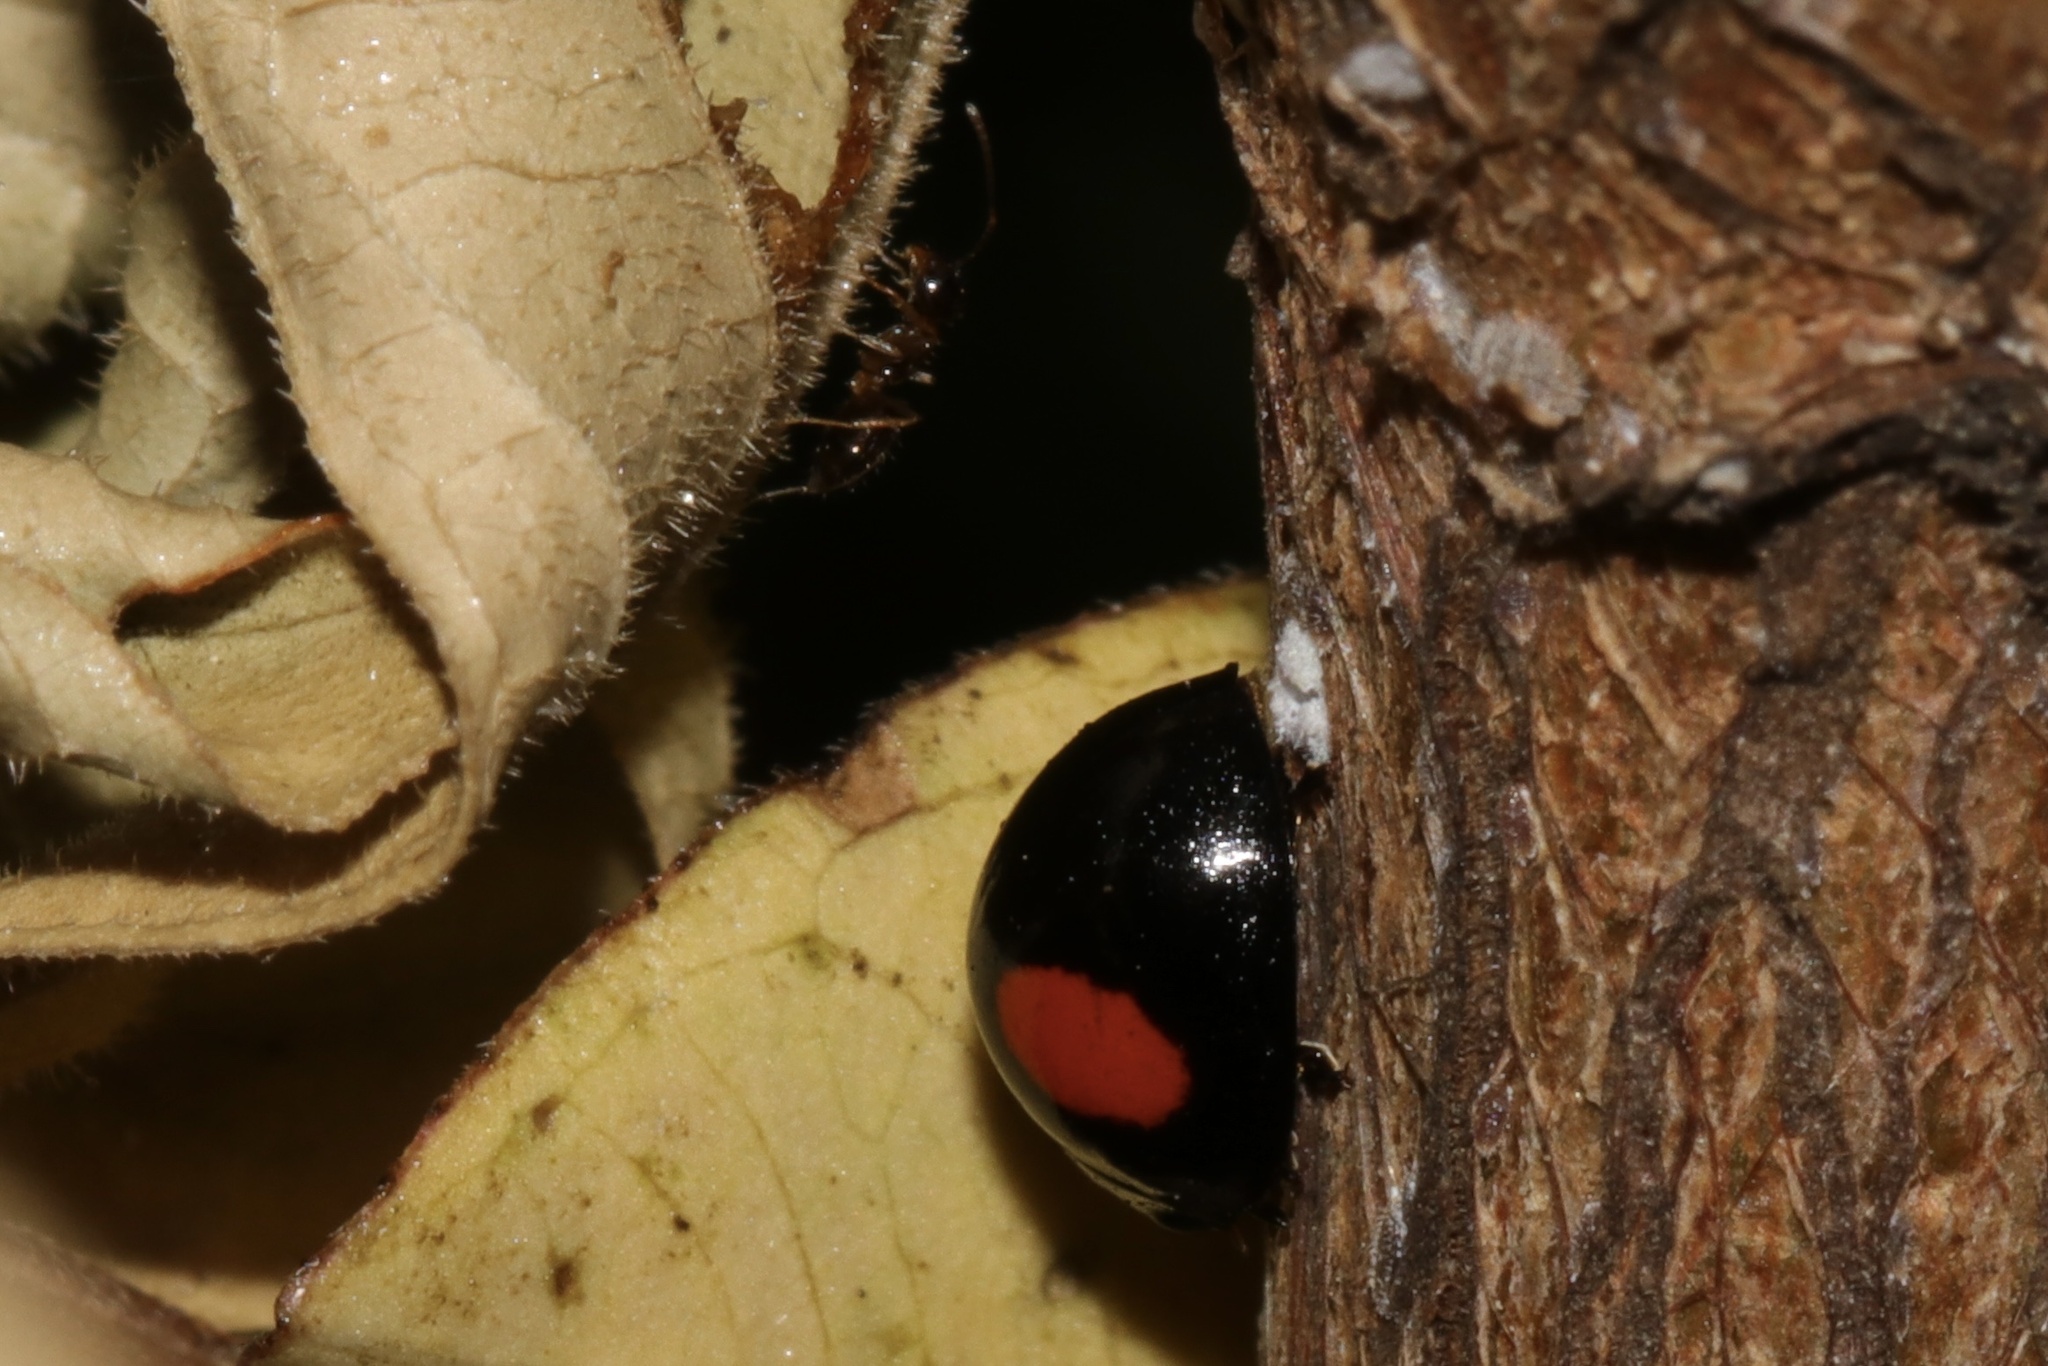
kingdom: Animalia
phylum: Arthropoda
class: Insecta
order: Coleoptera
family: Coccinellidae
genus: Chilocorus
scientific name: Chilocorus cacti
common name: Cactus lady beetle
